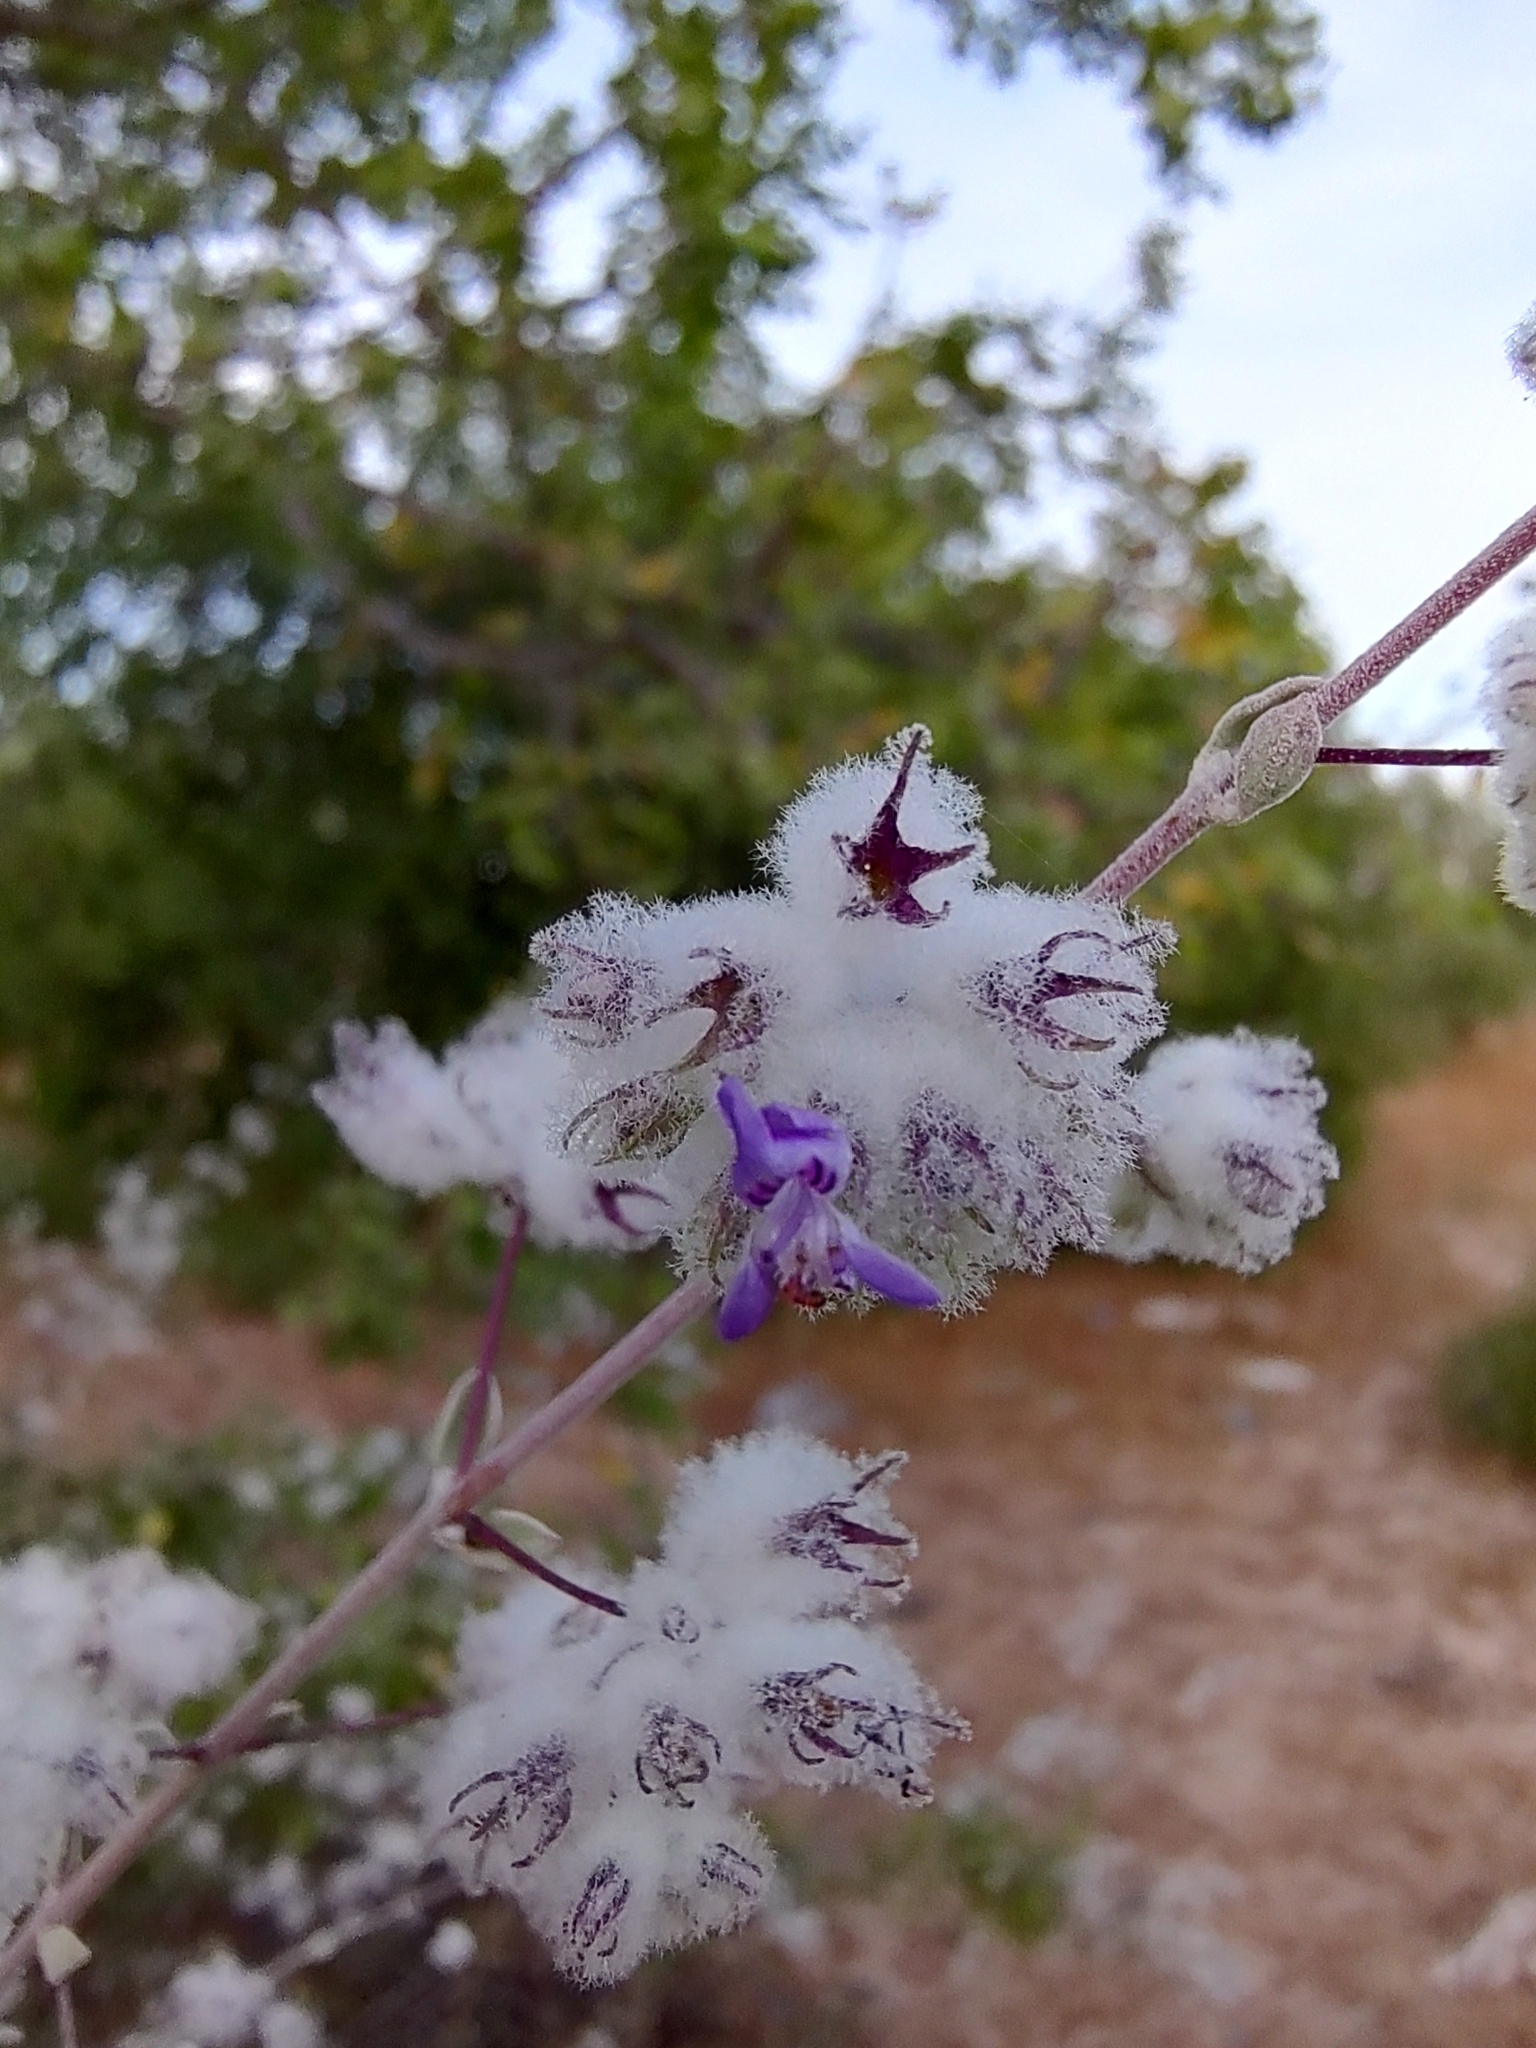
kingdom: Plantae
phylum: Tracheophyta
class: Magnoliopsida
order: Lamiales
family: Lamiaceae
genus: Condea
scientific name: Condea laniflora
